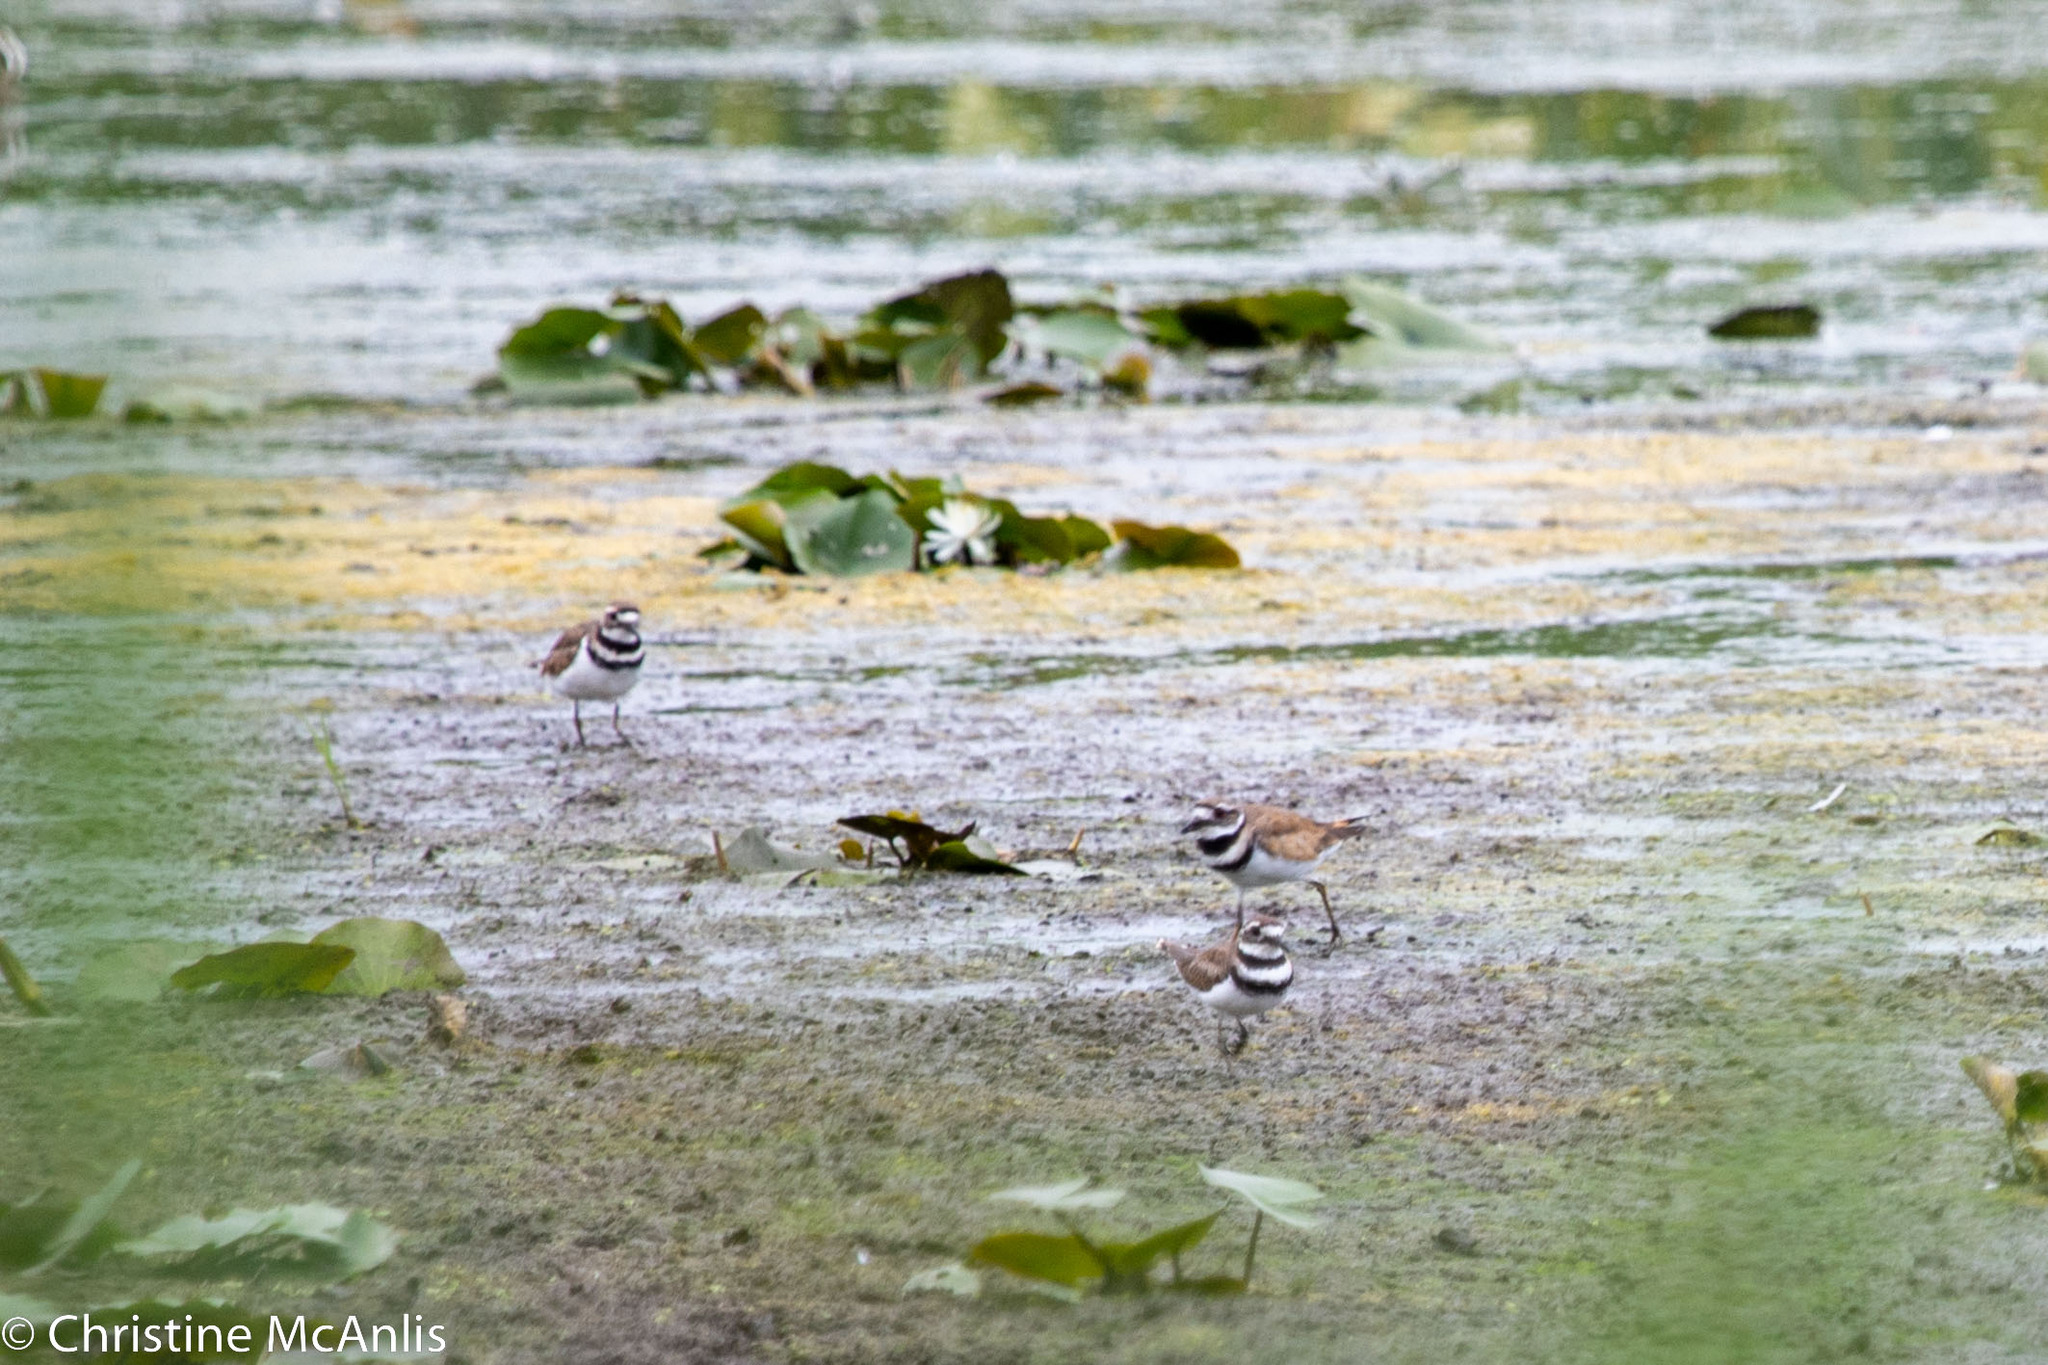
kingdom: Animalia
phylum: Chordata
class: Aves
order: Charadriiformes
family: Charadriidae
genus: Charadrius
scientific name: Charadrius vociferus
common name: Killdeer
